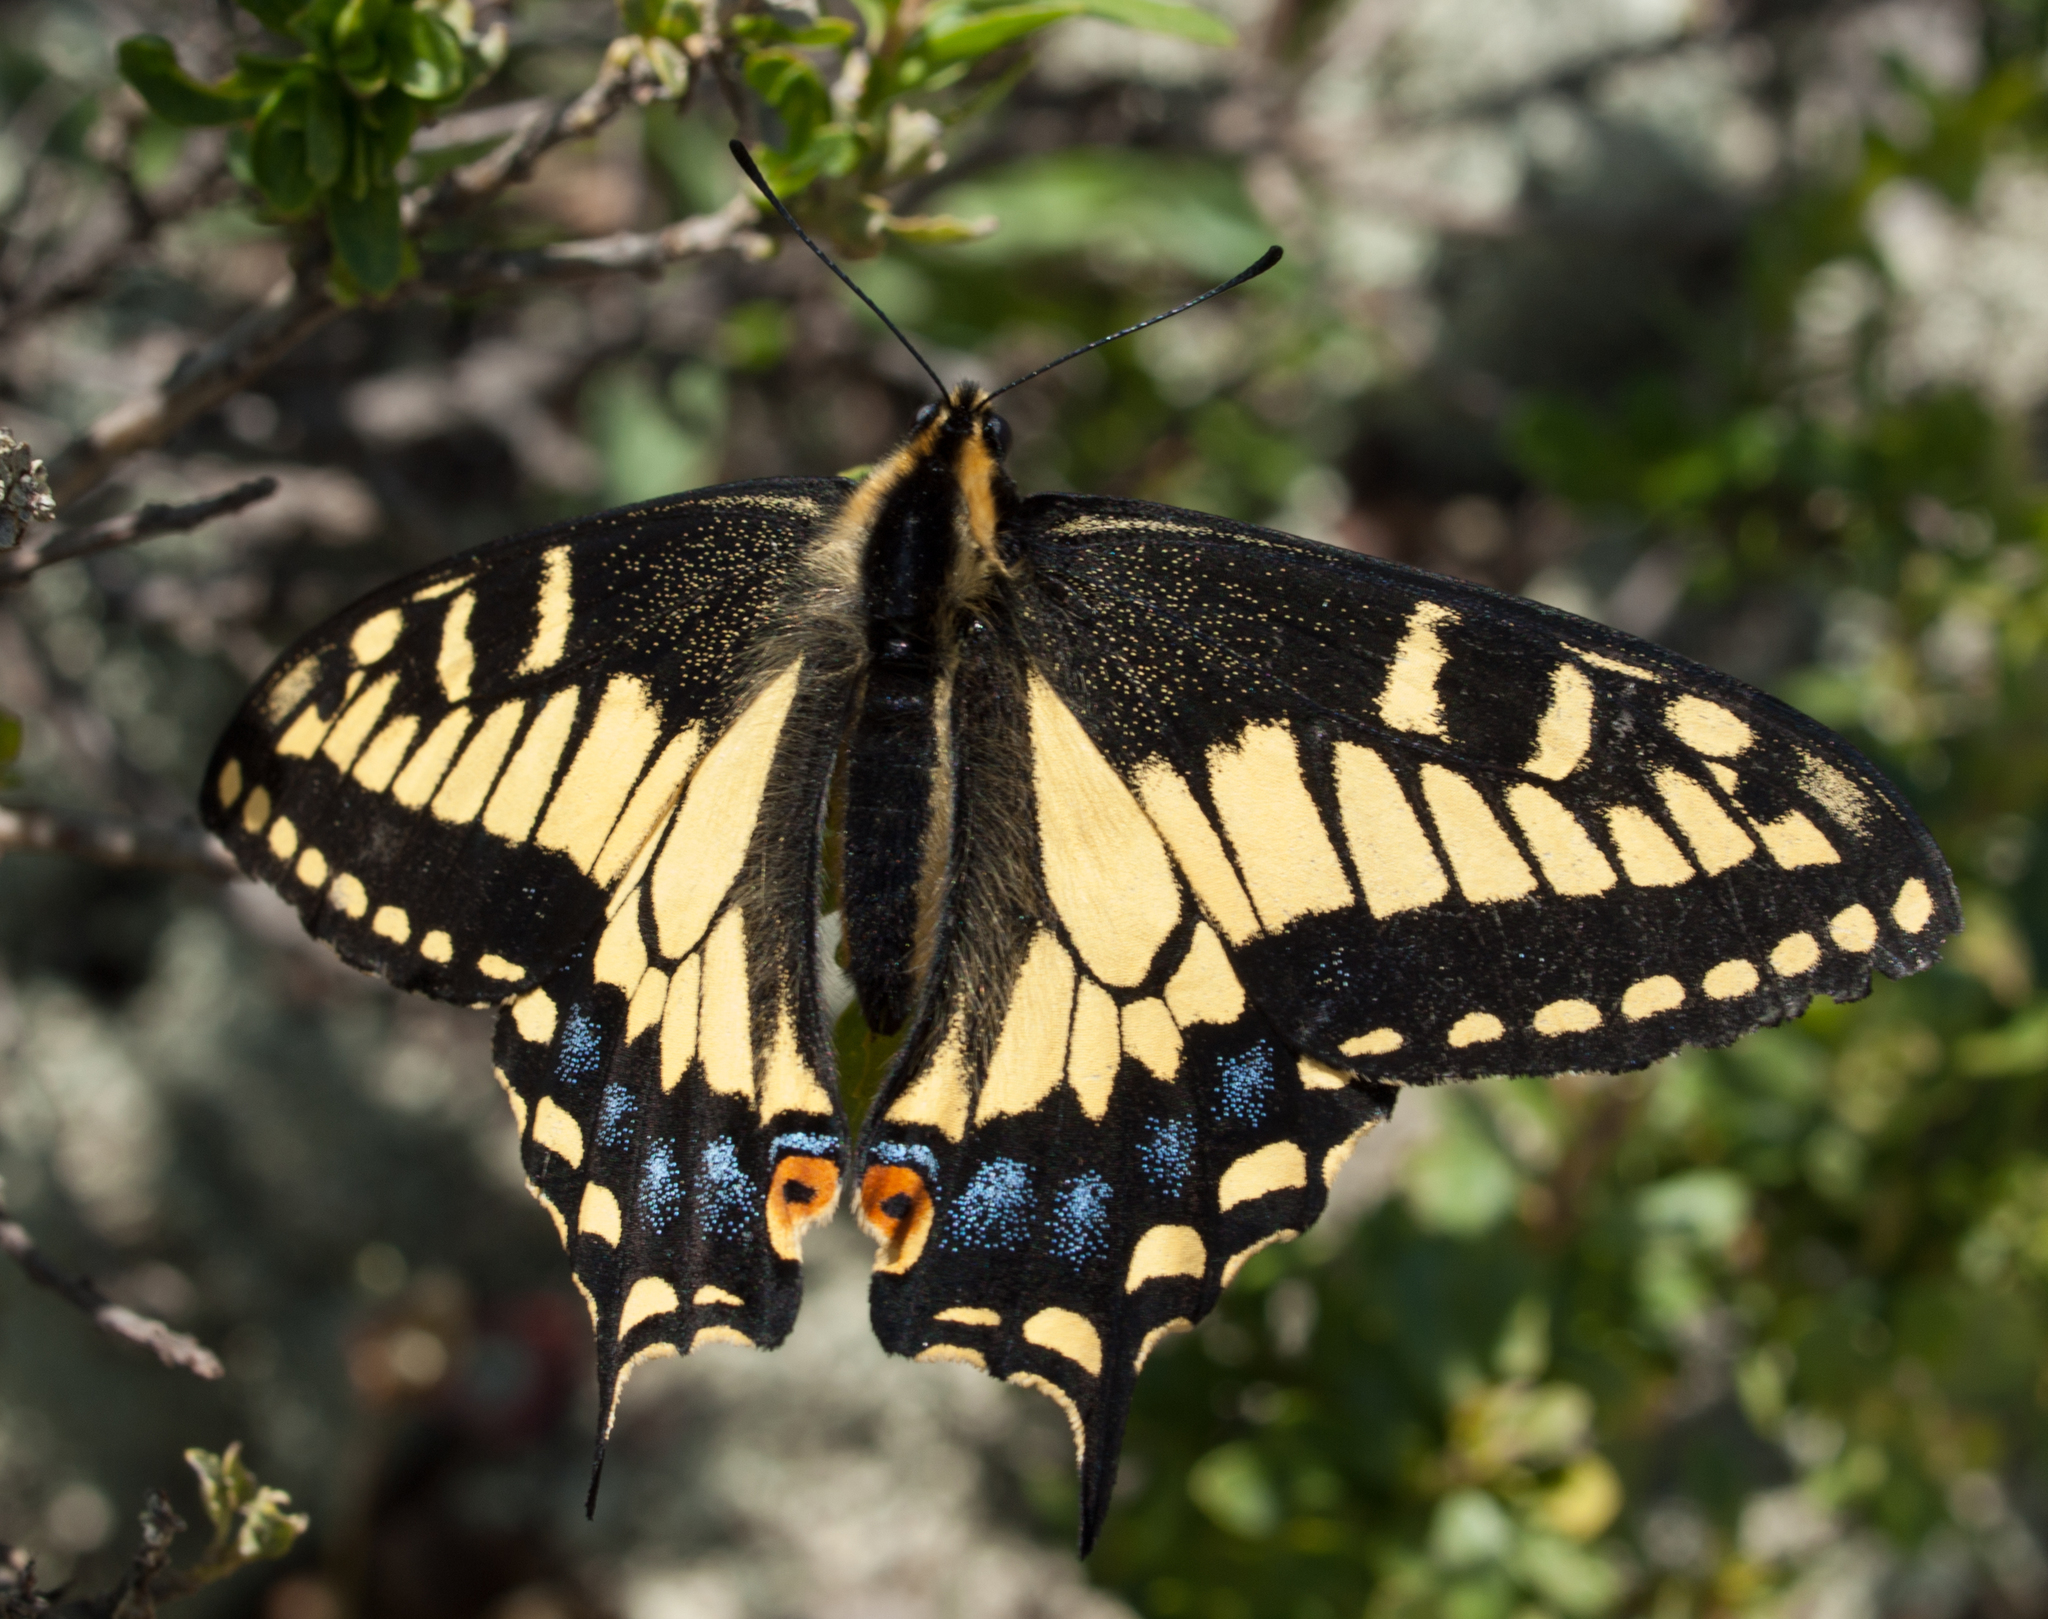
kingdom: Animalia
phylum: Arthropoda
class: Insecta
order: Lepidoptera
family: Papilionidae
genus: Papilio
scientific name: Papilio zelicaon
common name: Anise swallowtail
